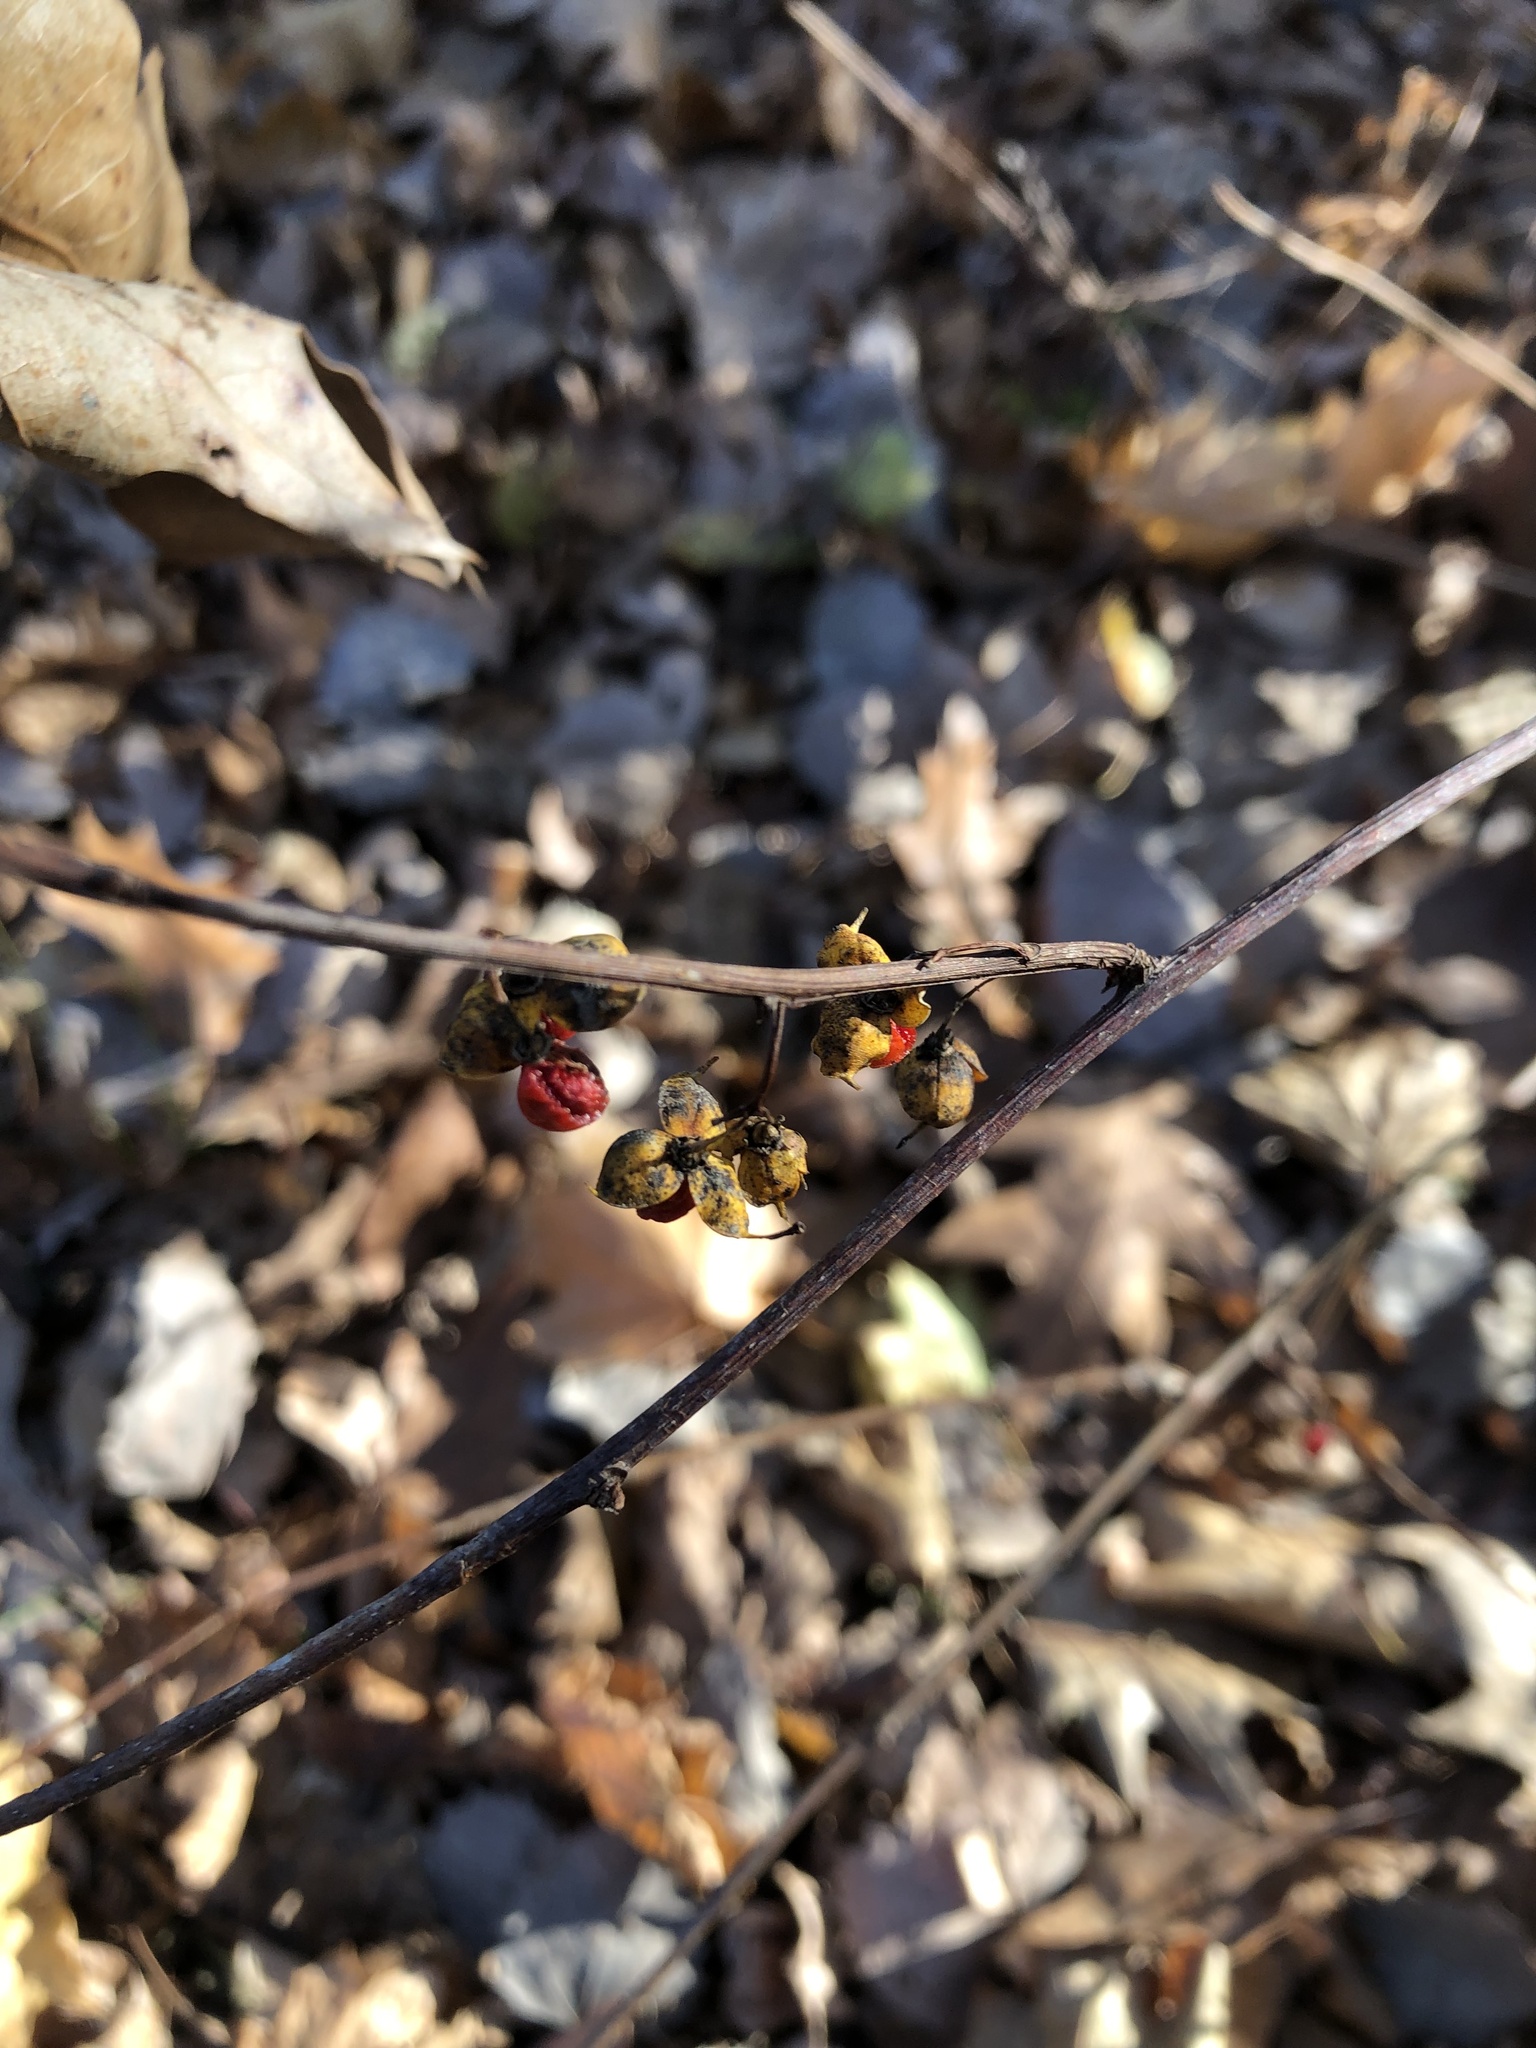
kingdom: Plantae
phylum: Tracheophyta
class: Magnoliopsida
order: Celastrales
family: Celastraceae
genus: Celastrus
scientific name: Celastrus orbiculatus
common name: Oriental bittersweet
